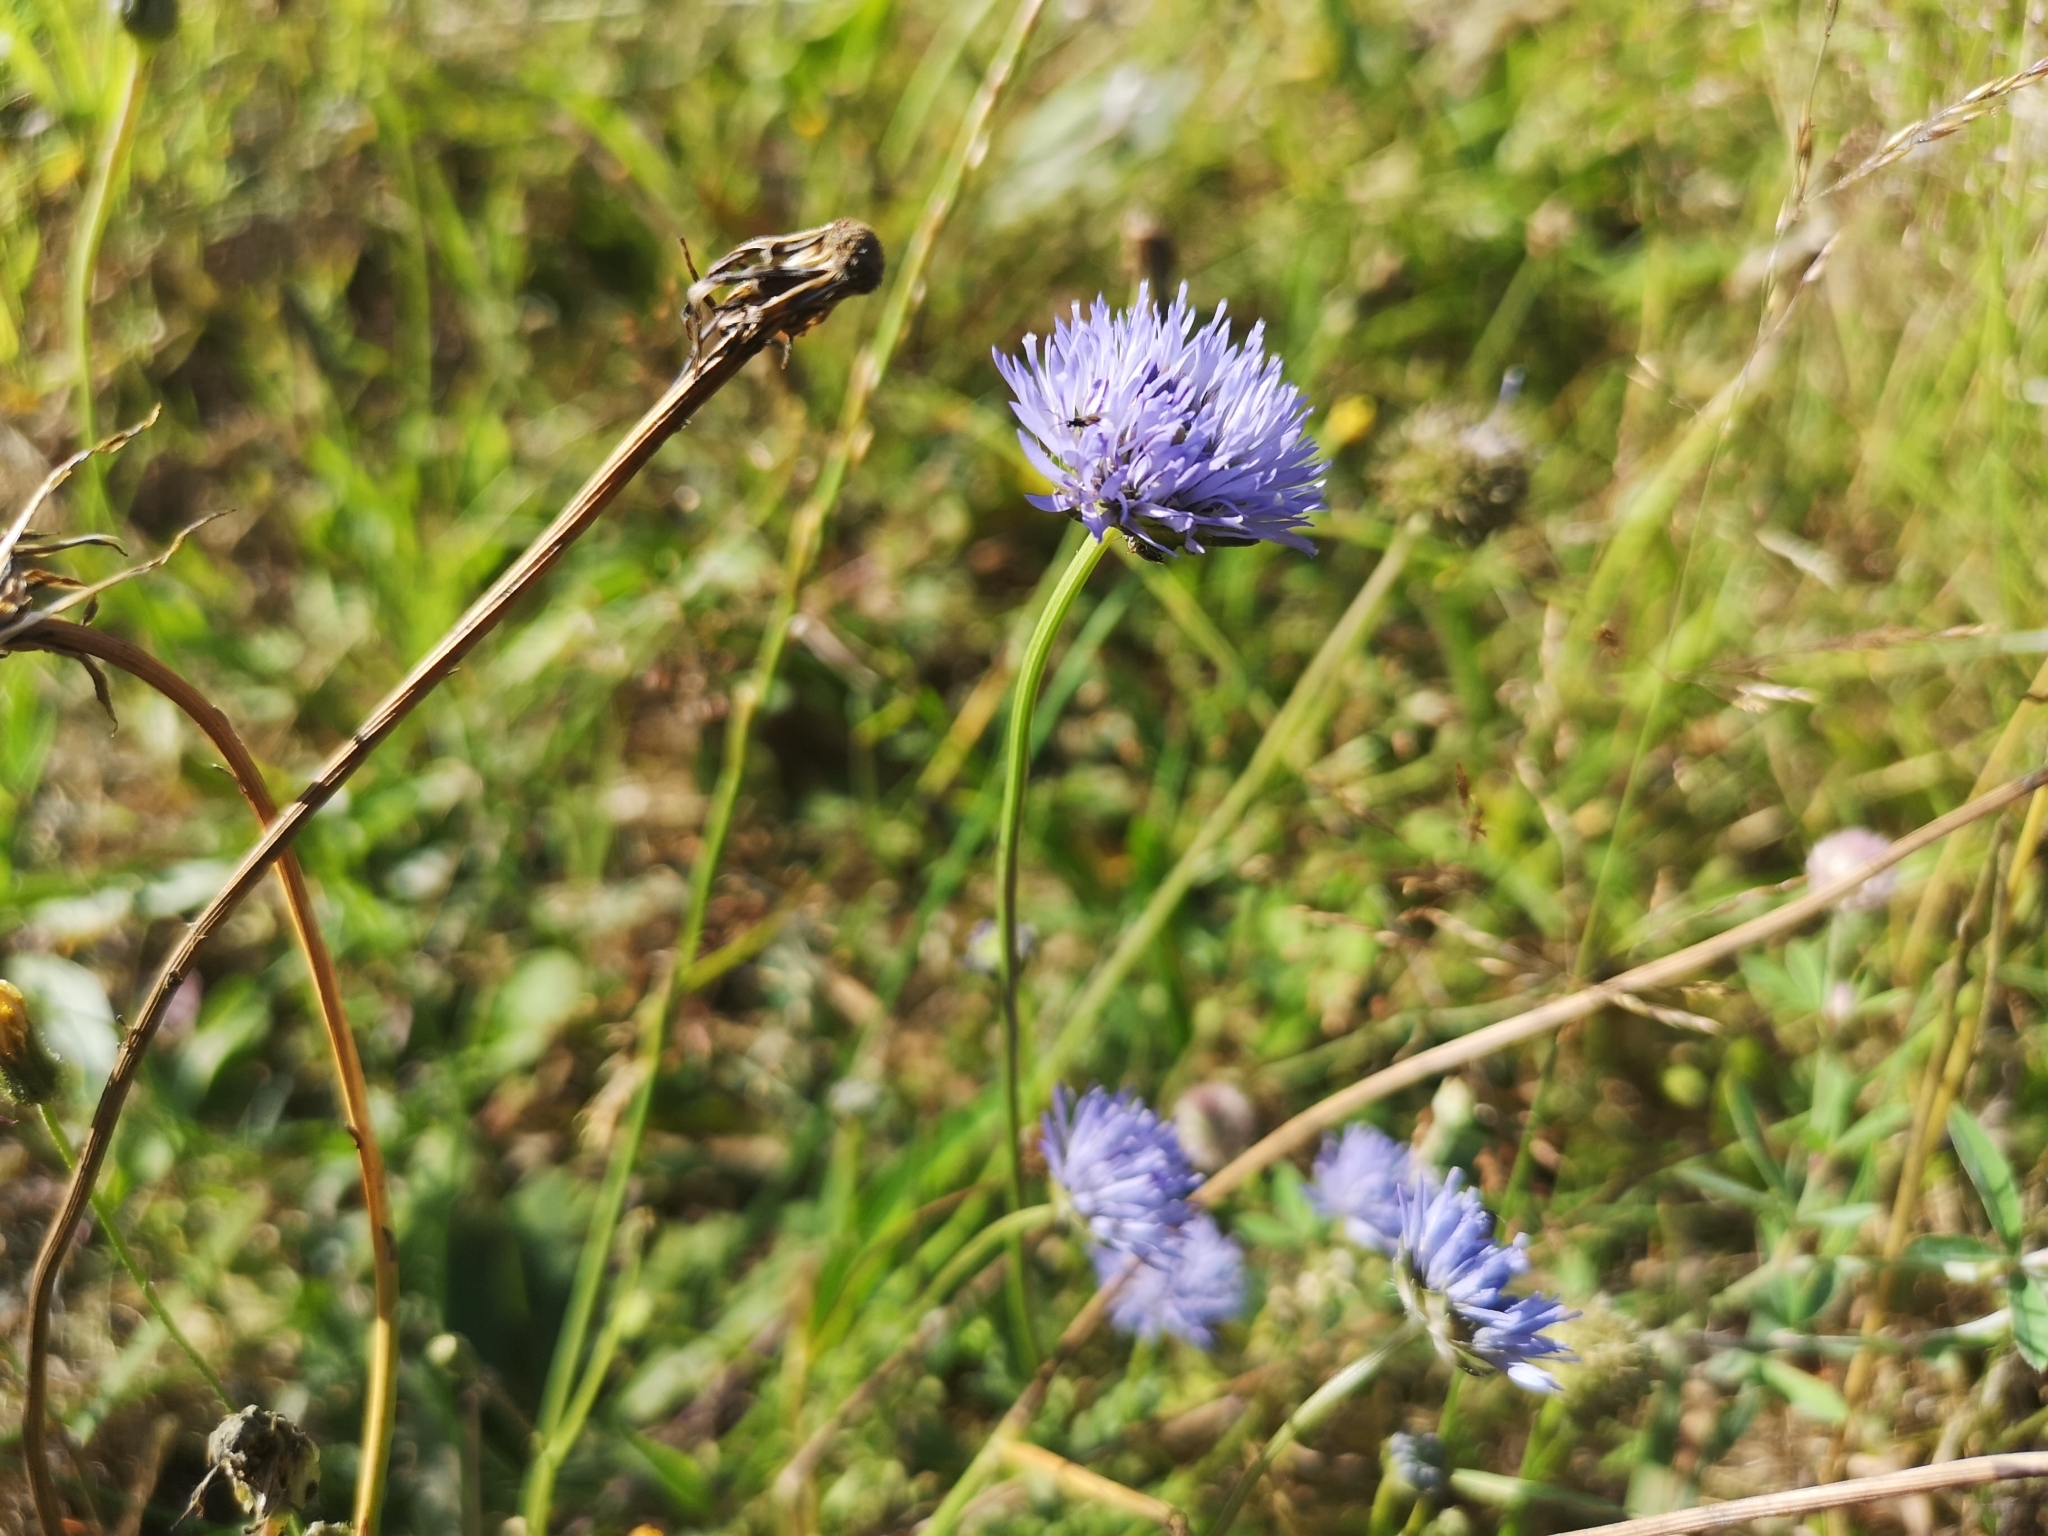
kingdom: Plantae
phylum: Tracheophyta
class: Magnoliopsida
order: Asterales
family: Campanulaceae
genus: Jasione
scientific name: Jasione montana
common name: Sheep's-bit
